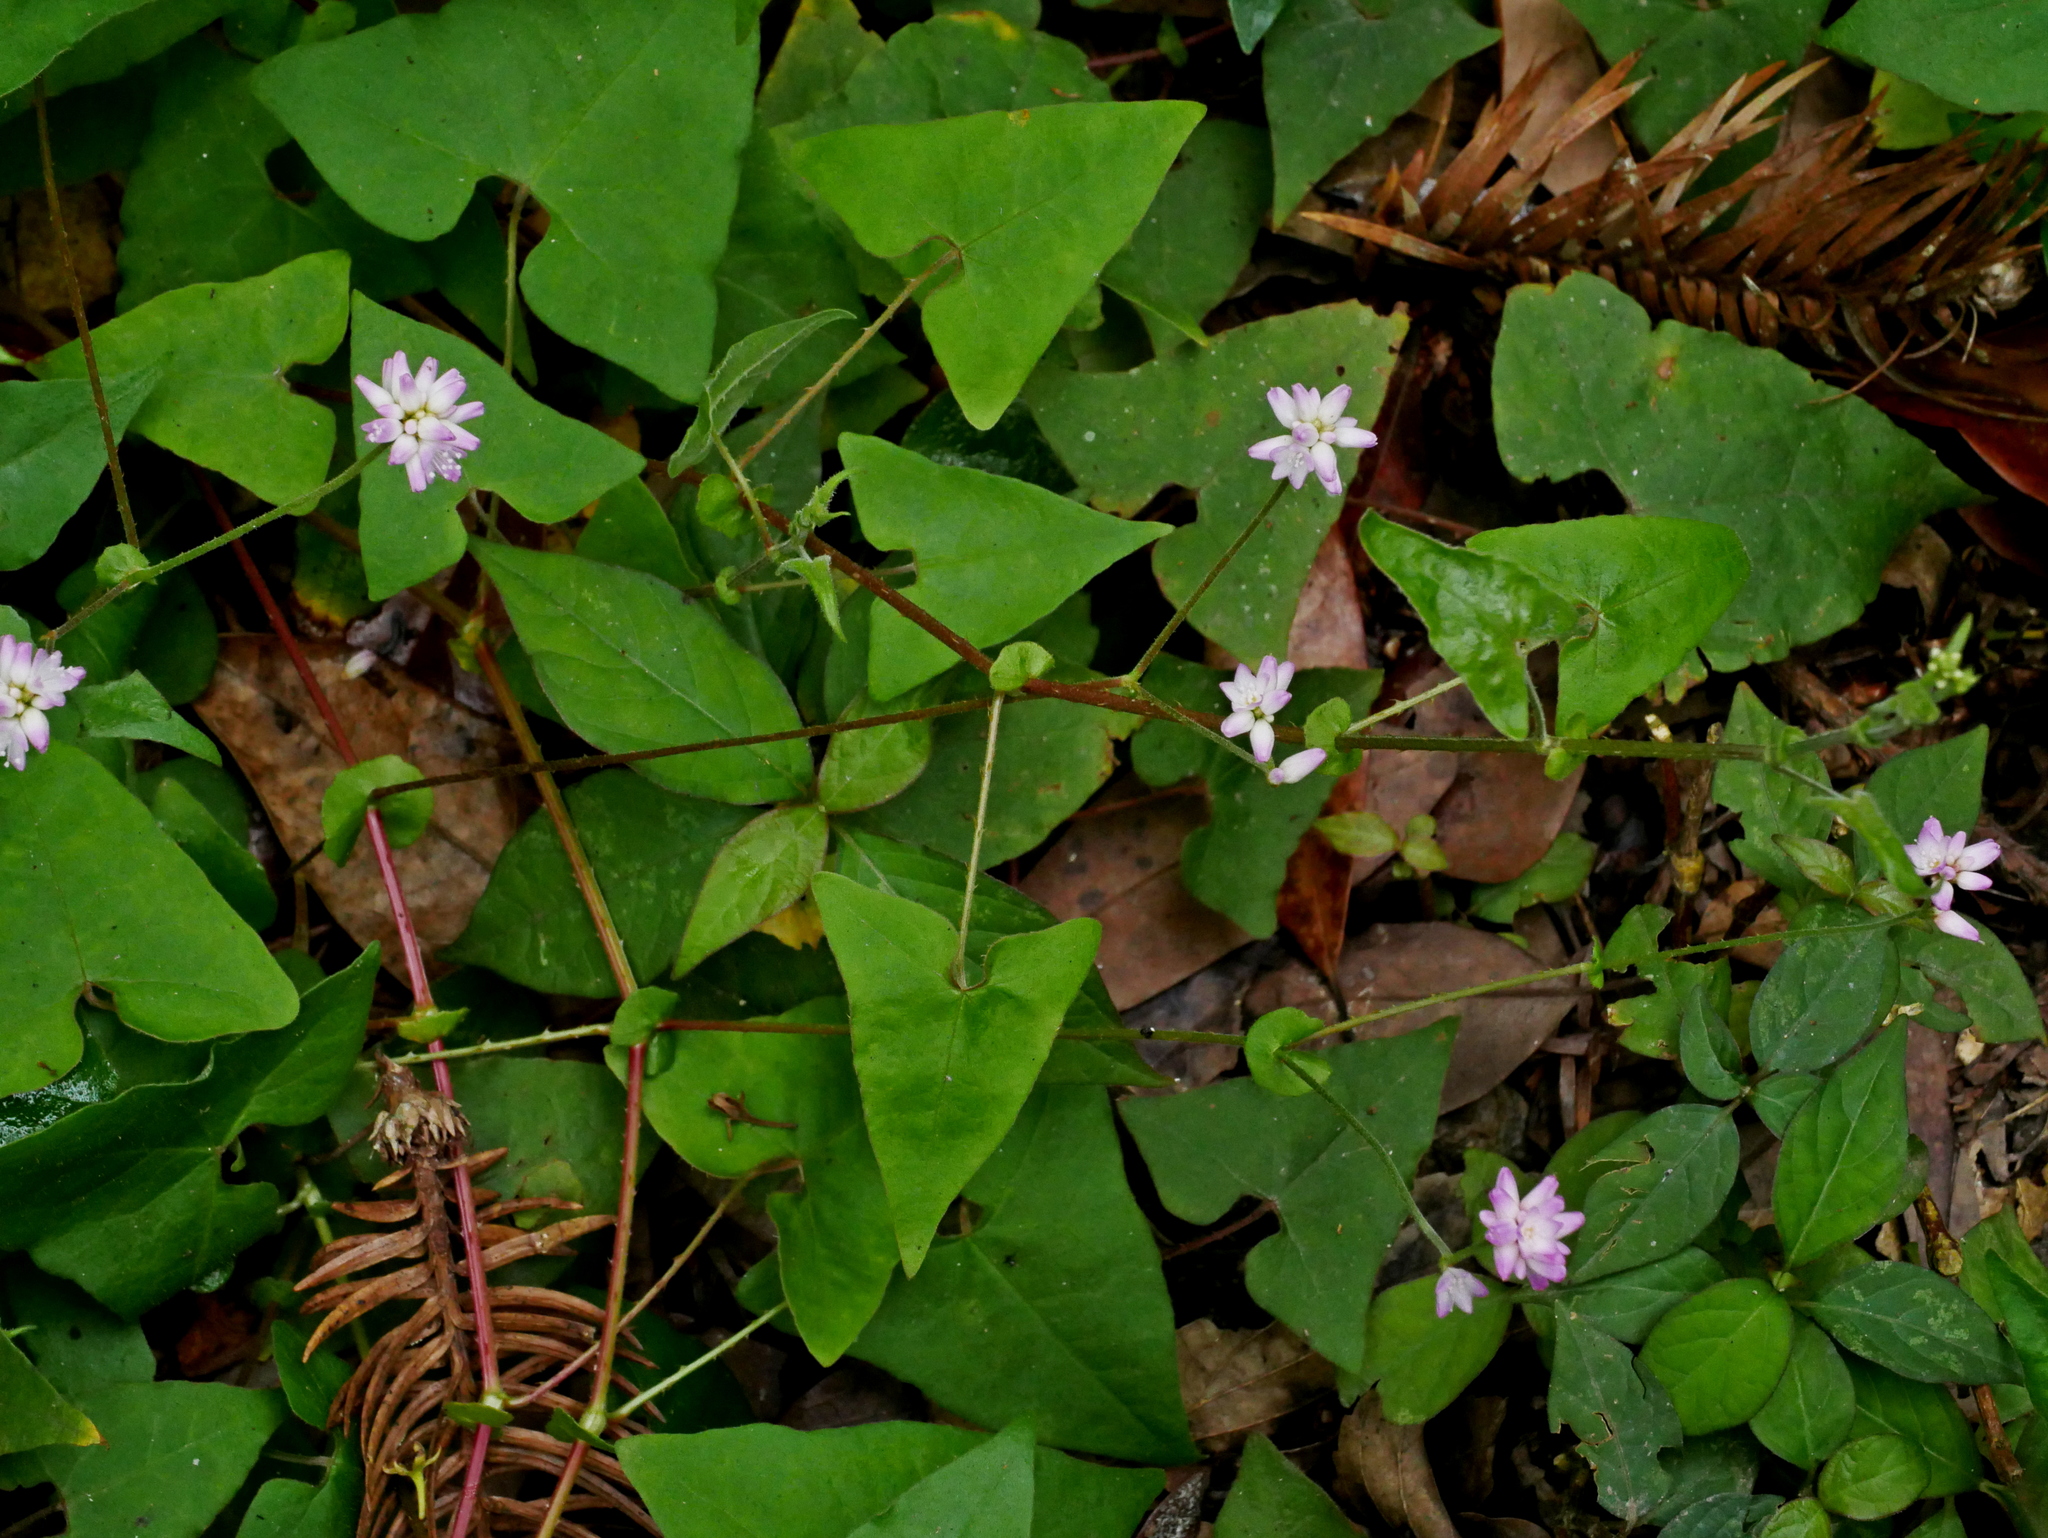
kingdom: Plantae
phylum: Tracheophyta
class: Magnoliopsida
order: Caryophyllales
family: Polygonaceae
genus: Persicaria
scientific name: Persicaria senticosa
